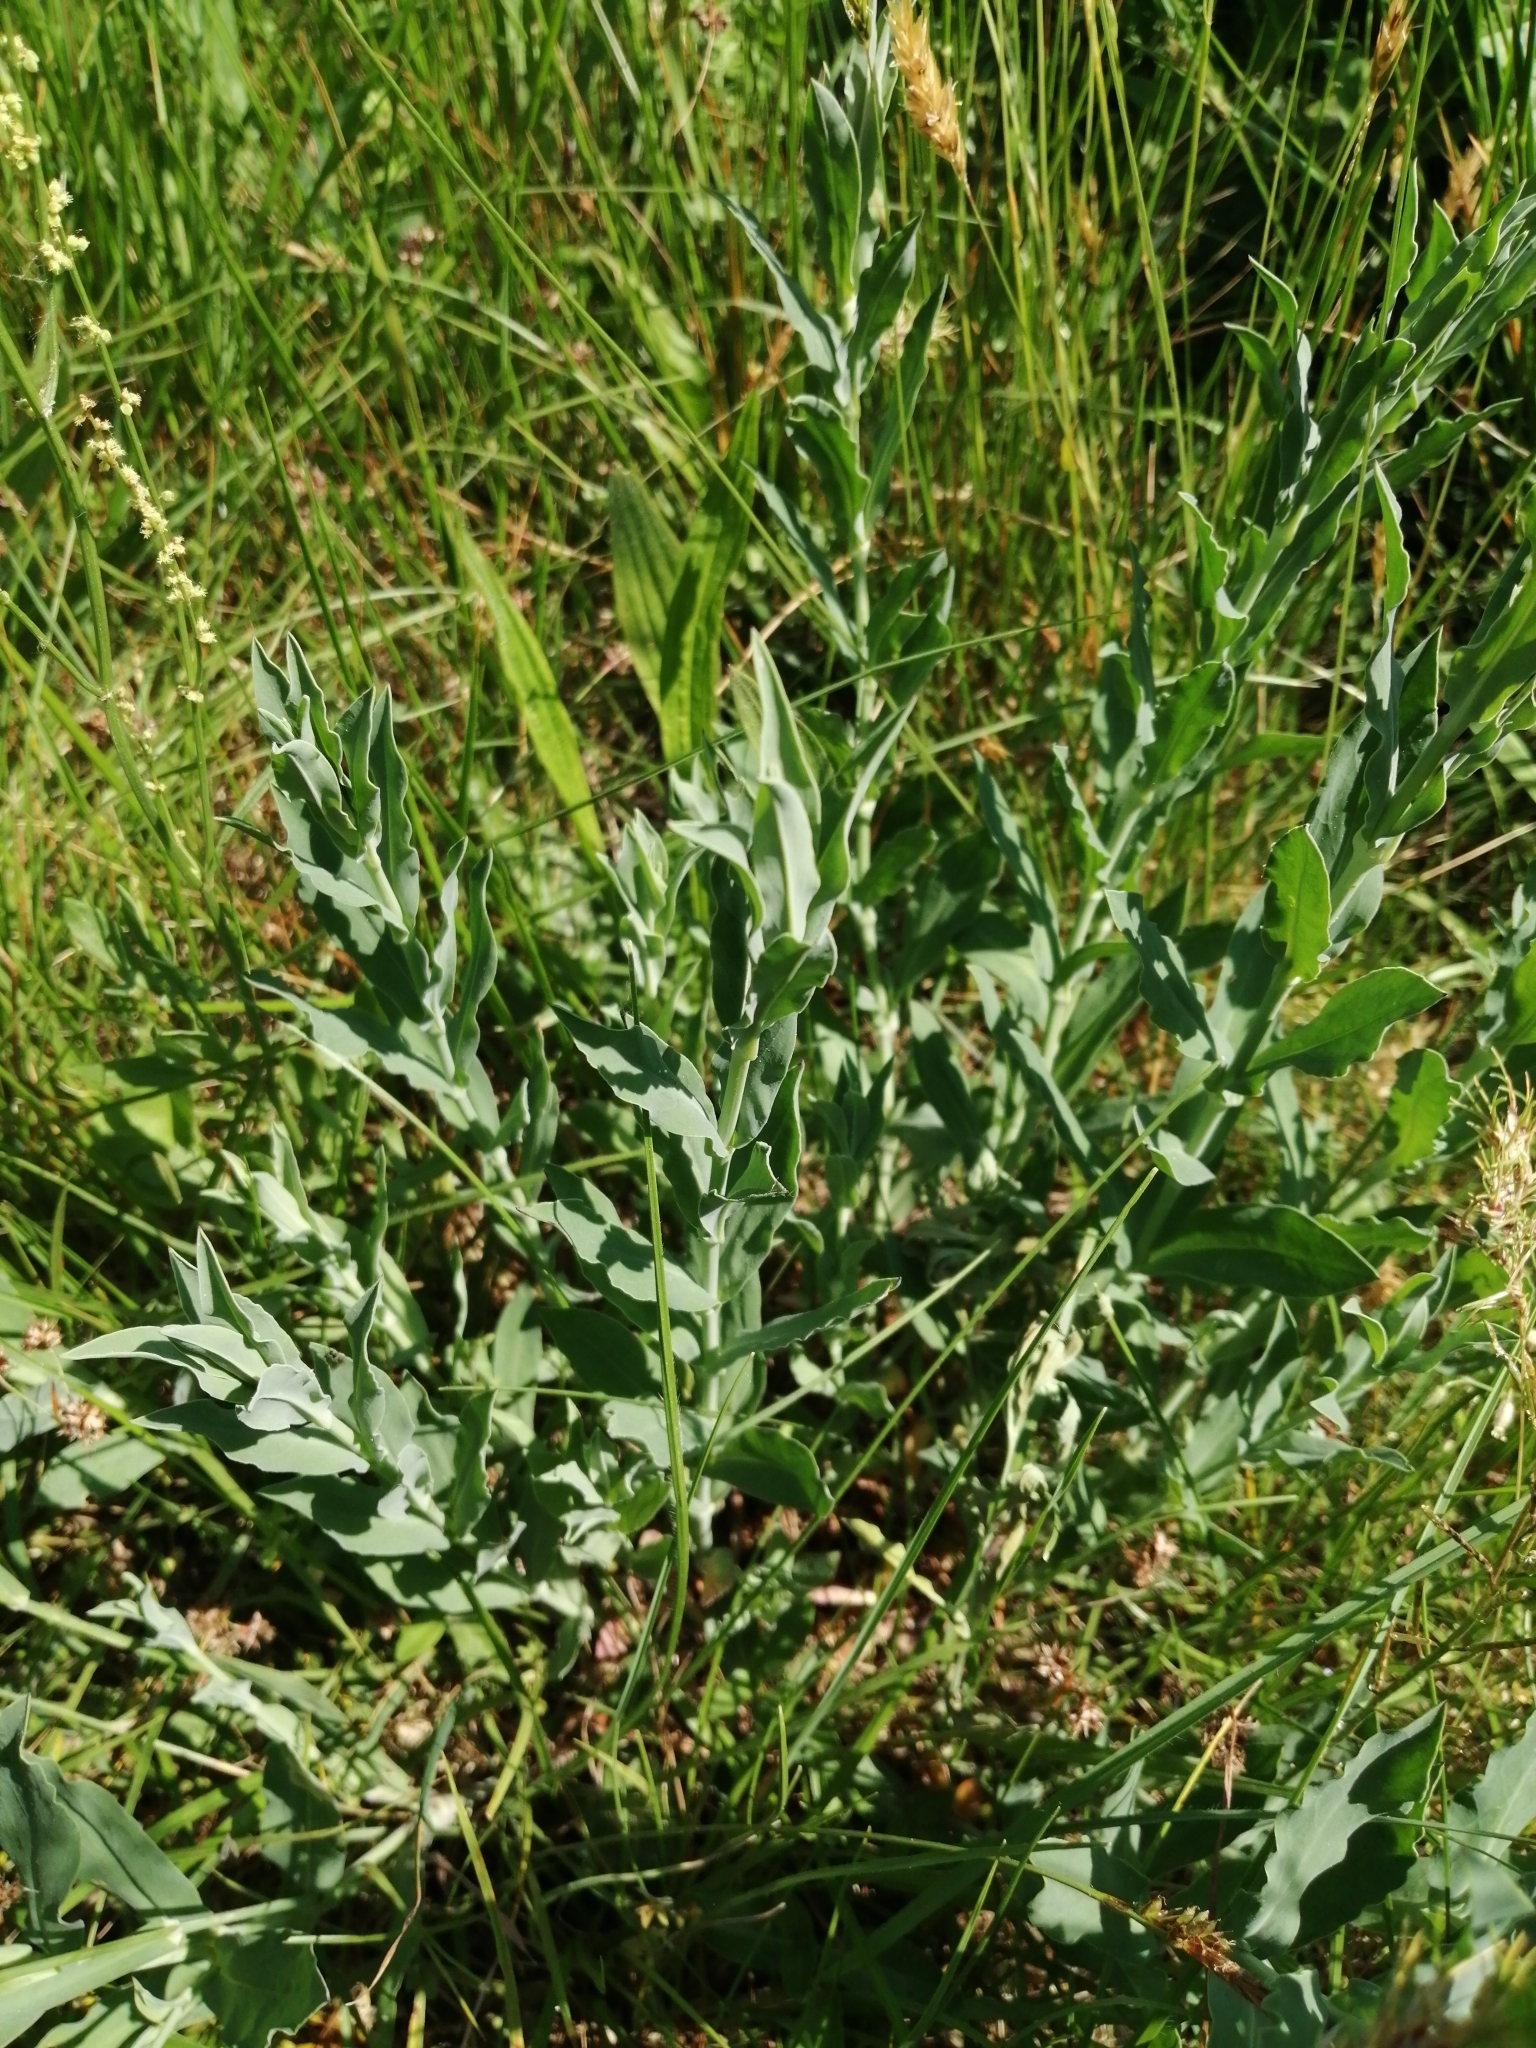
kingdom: Plantae
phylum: Tracheophyta
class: Magnoliopsida
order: Caryophyllales
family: Caryophyllaceae
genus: Silene
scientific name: Silene vulgaris
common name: Bladder campion
